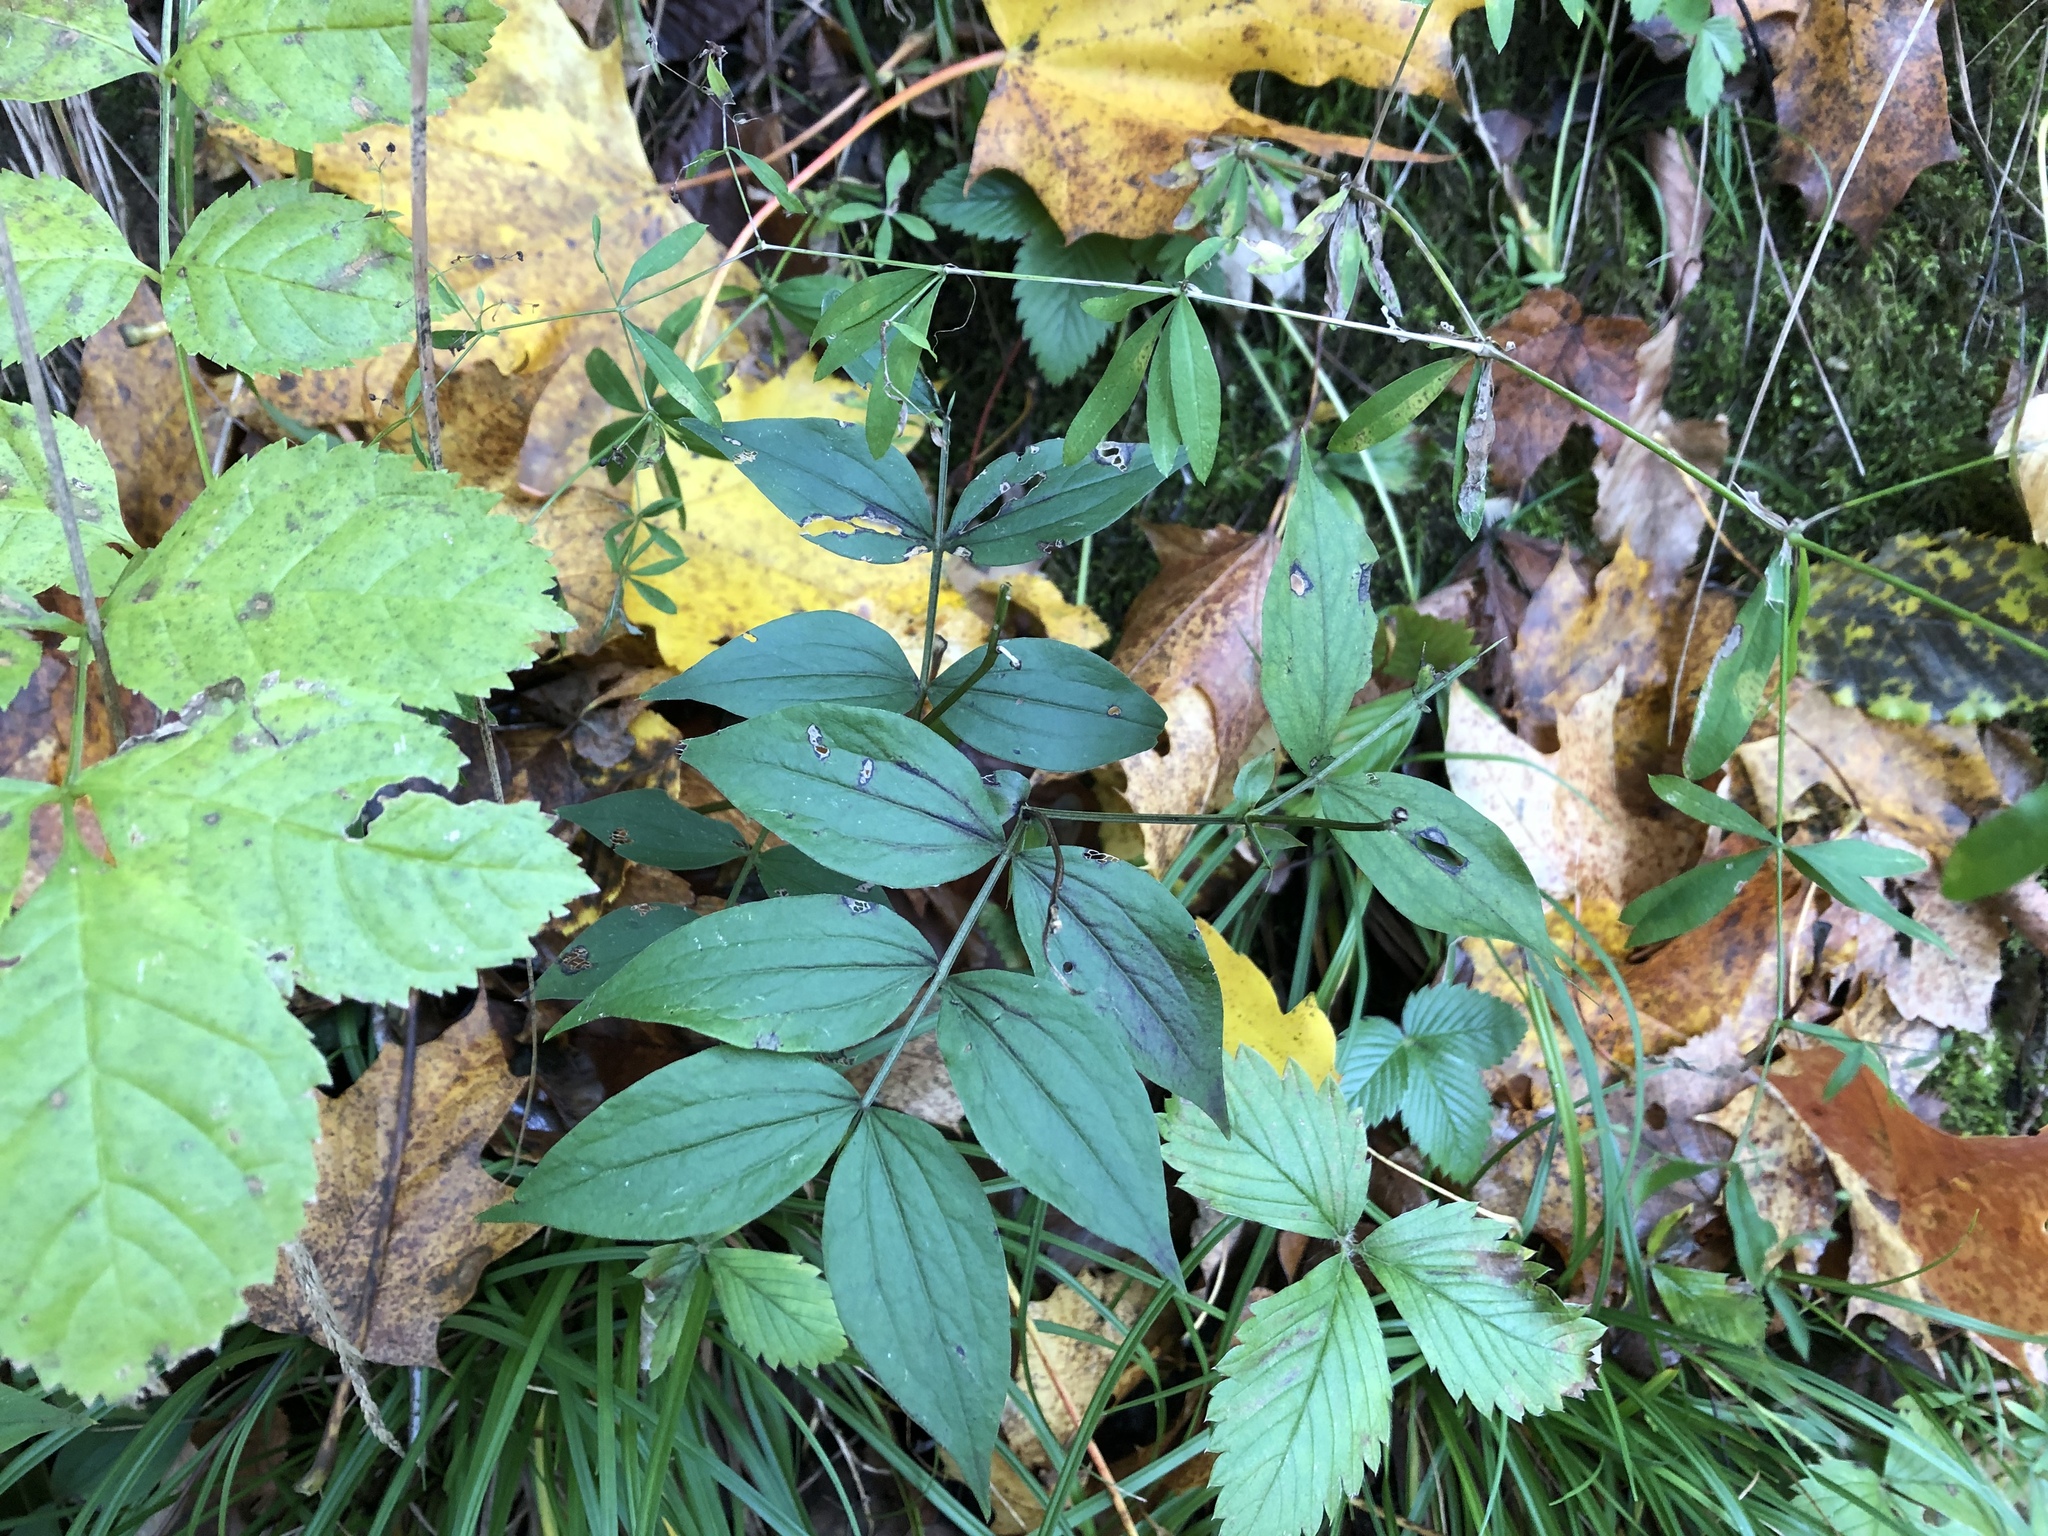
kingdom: Plantae
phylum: Tracheophyta
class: Magnoliopsida
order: Fabales
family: Fabaceae
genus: Lathyrus
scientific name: Lathyrus vernus
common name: Spring pea
